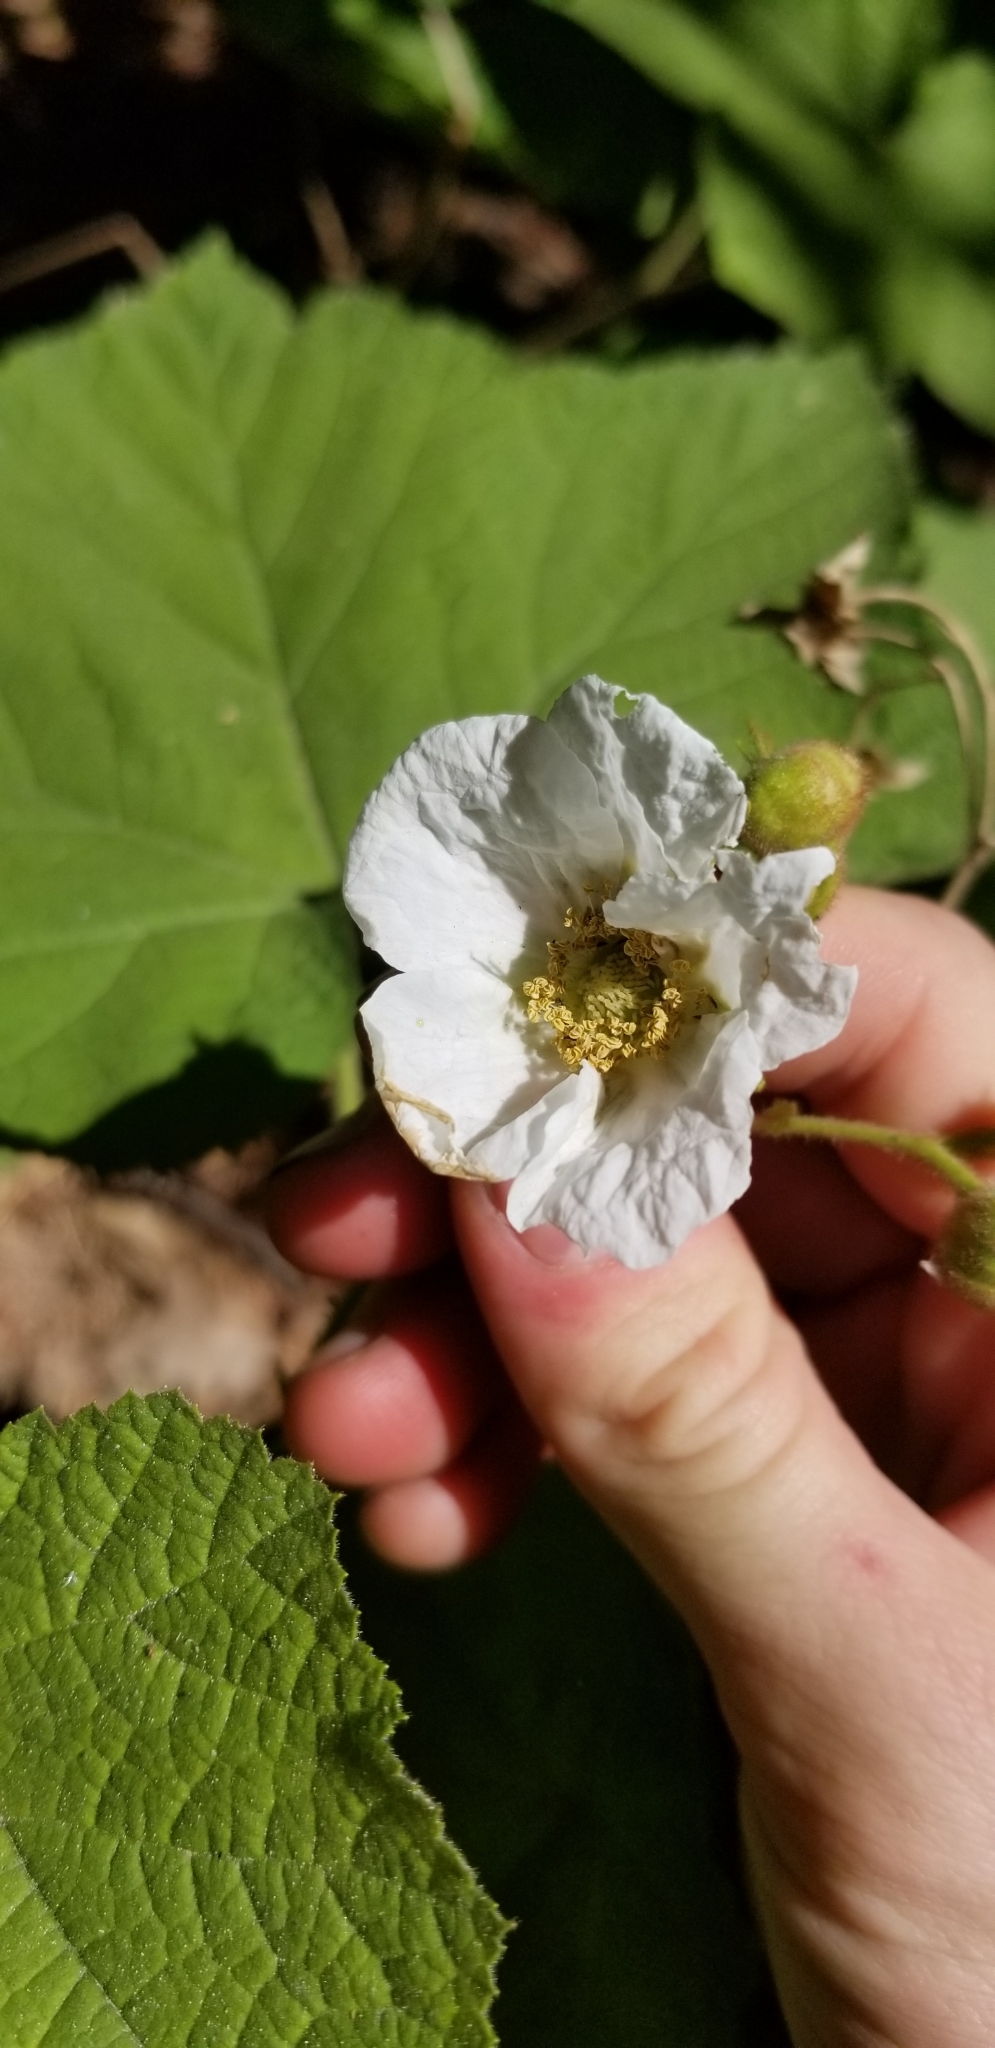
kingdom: Plantae
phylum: Tracheophyta
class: Magnoliopsida
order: Rosales
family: Rosaceae
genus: Rubus
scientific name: Rubus parviflorus
